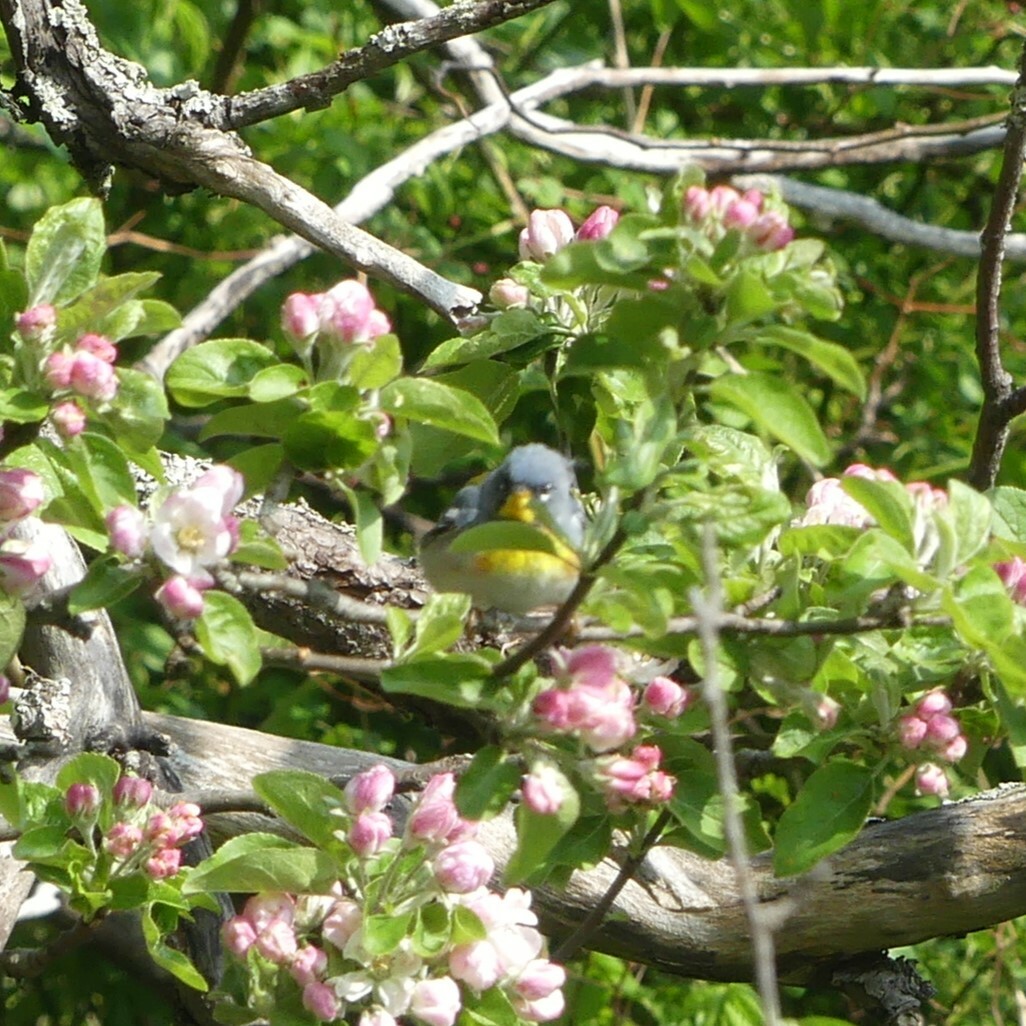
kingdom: Animalia
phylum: Chordata
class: Aves
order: Passeriformes
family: Parulidae
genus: Setophaga
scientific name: Setophaga americana
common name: Northern parula
